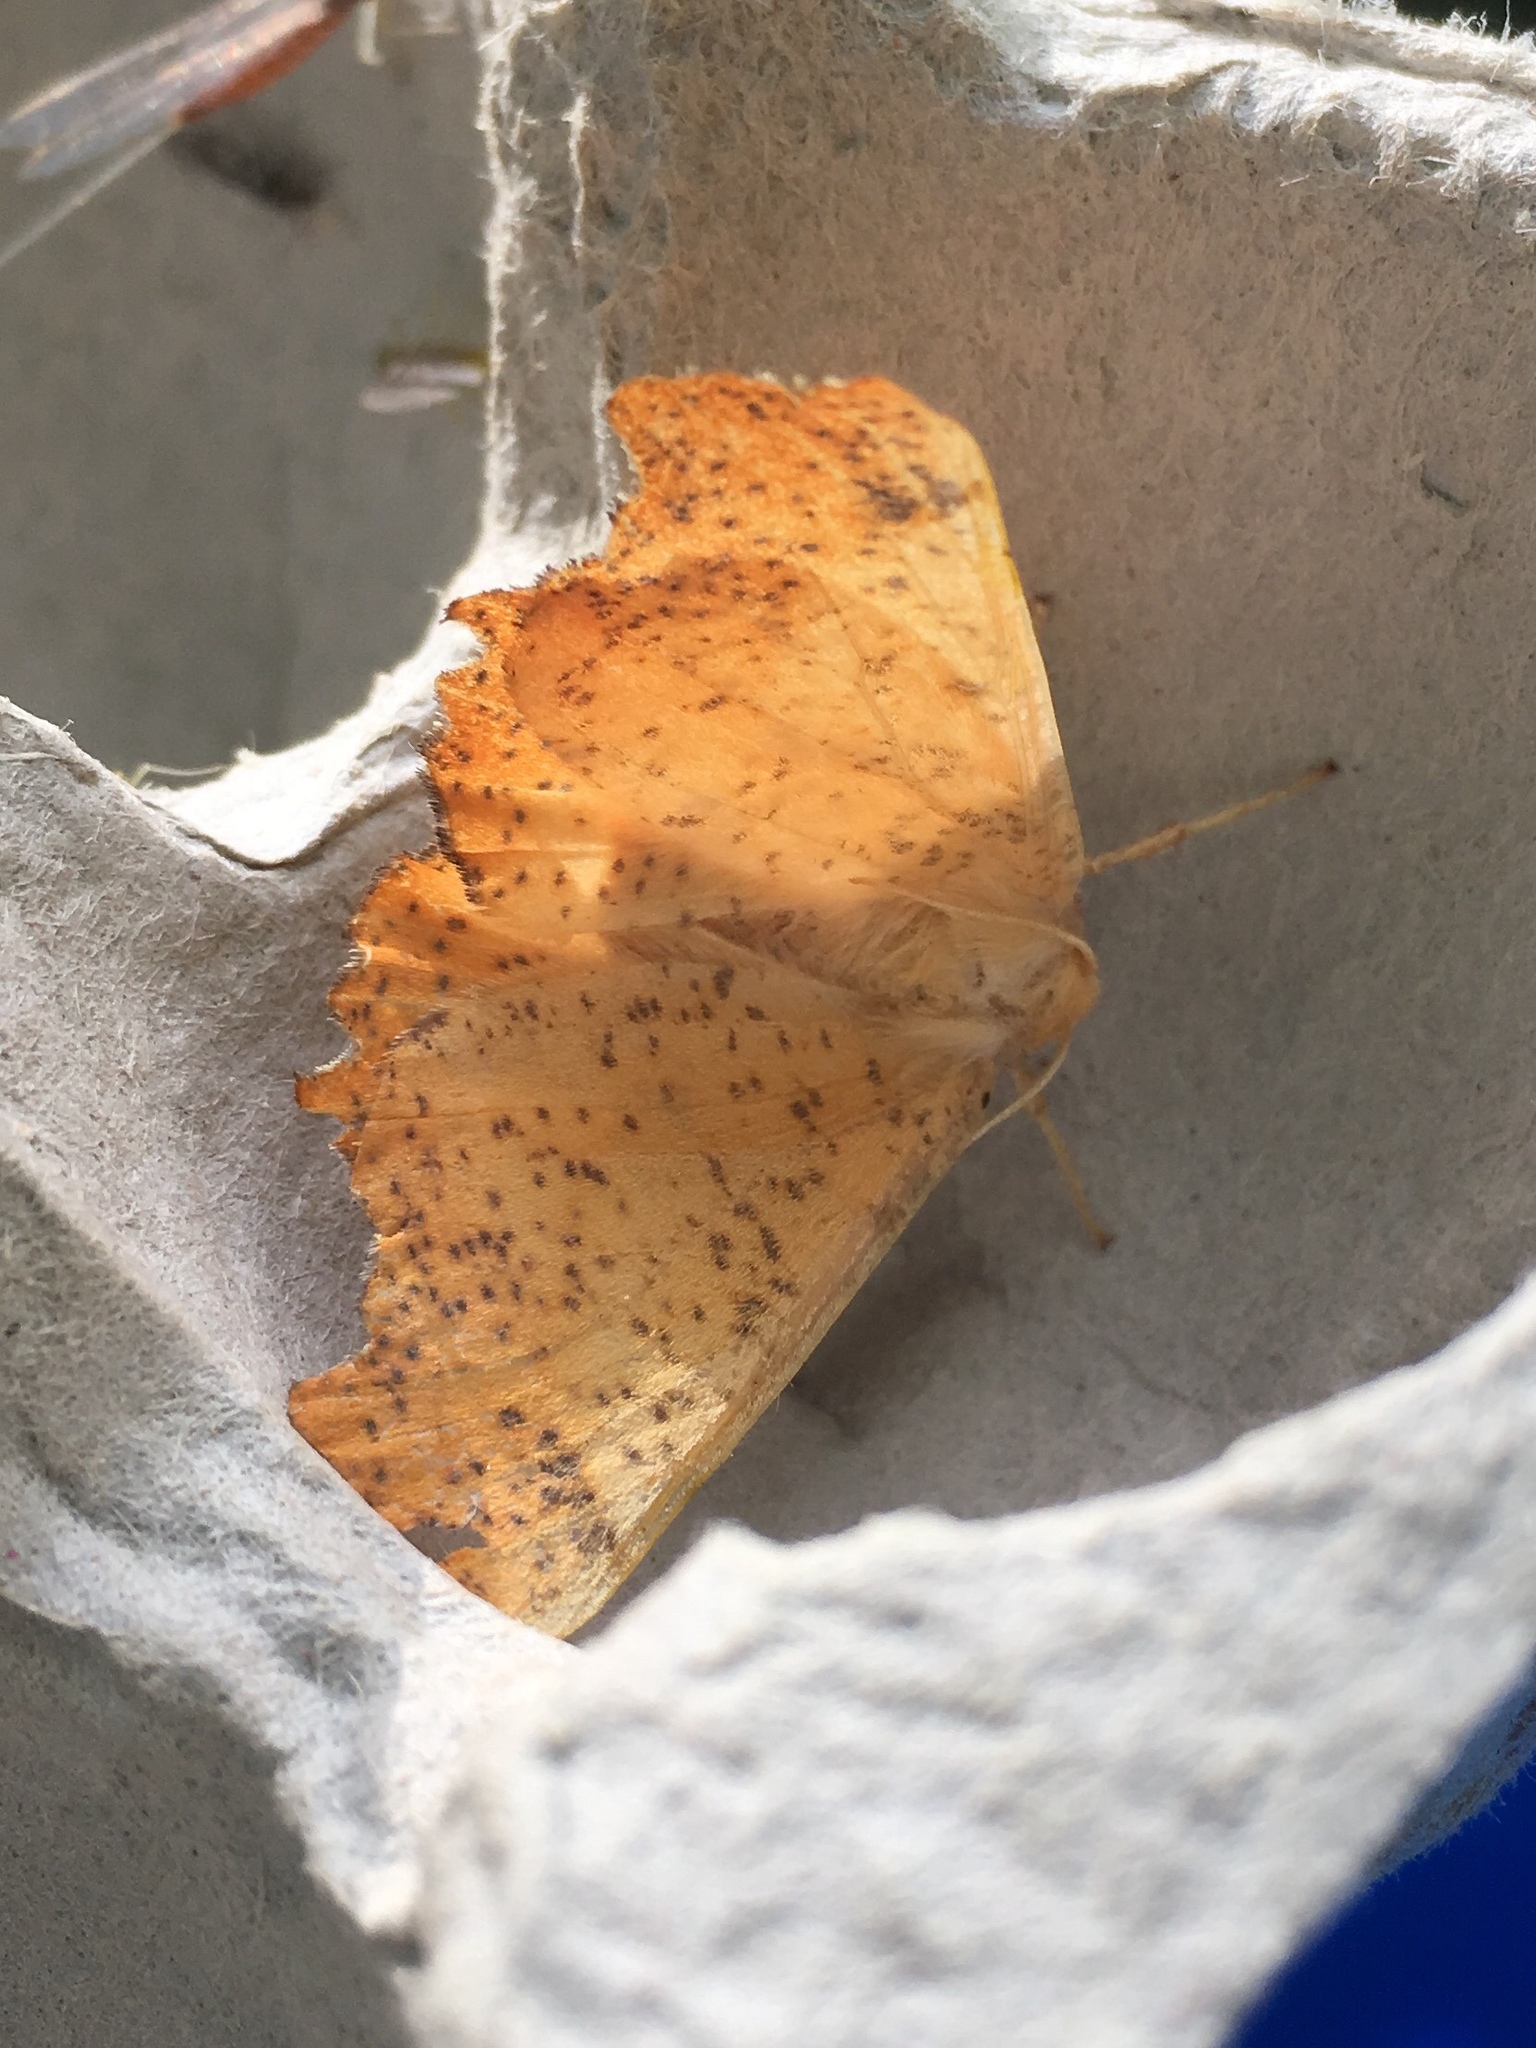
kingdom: Animalia
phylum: Arthropoda
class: Insecta
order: Lepidoptera
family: Geometridae
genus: Ennomos
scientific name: Ennomos magnaria
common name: Maple spanworm
